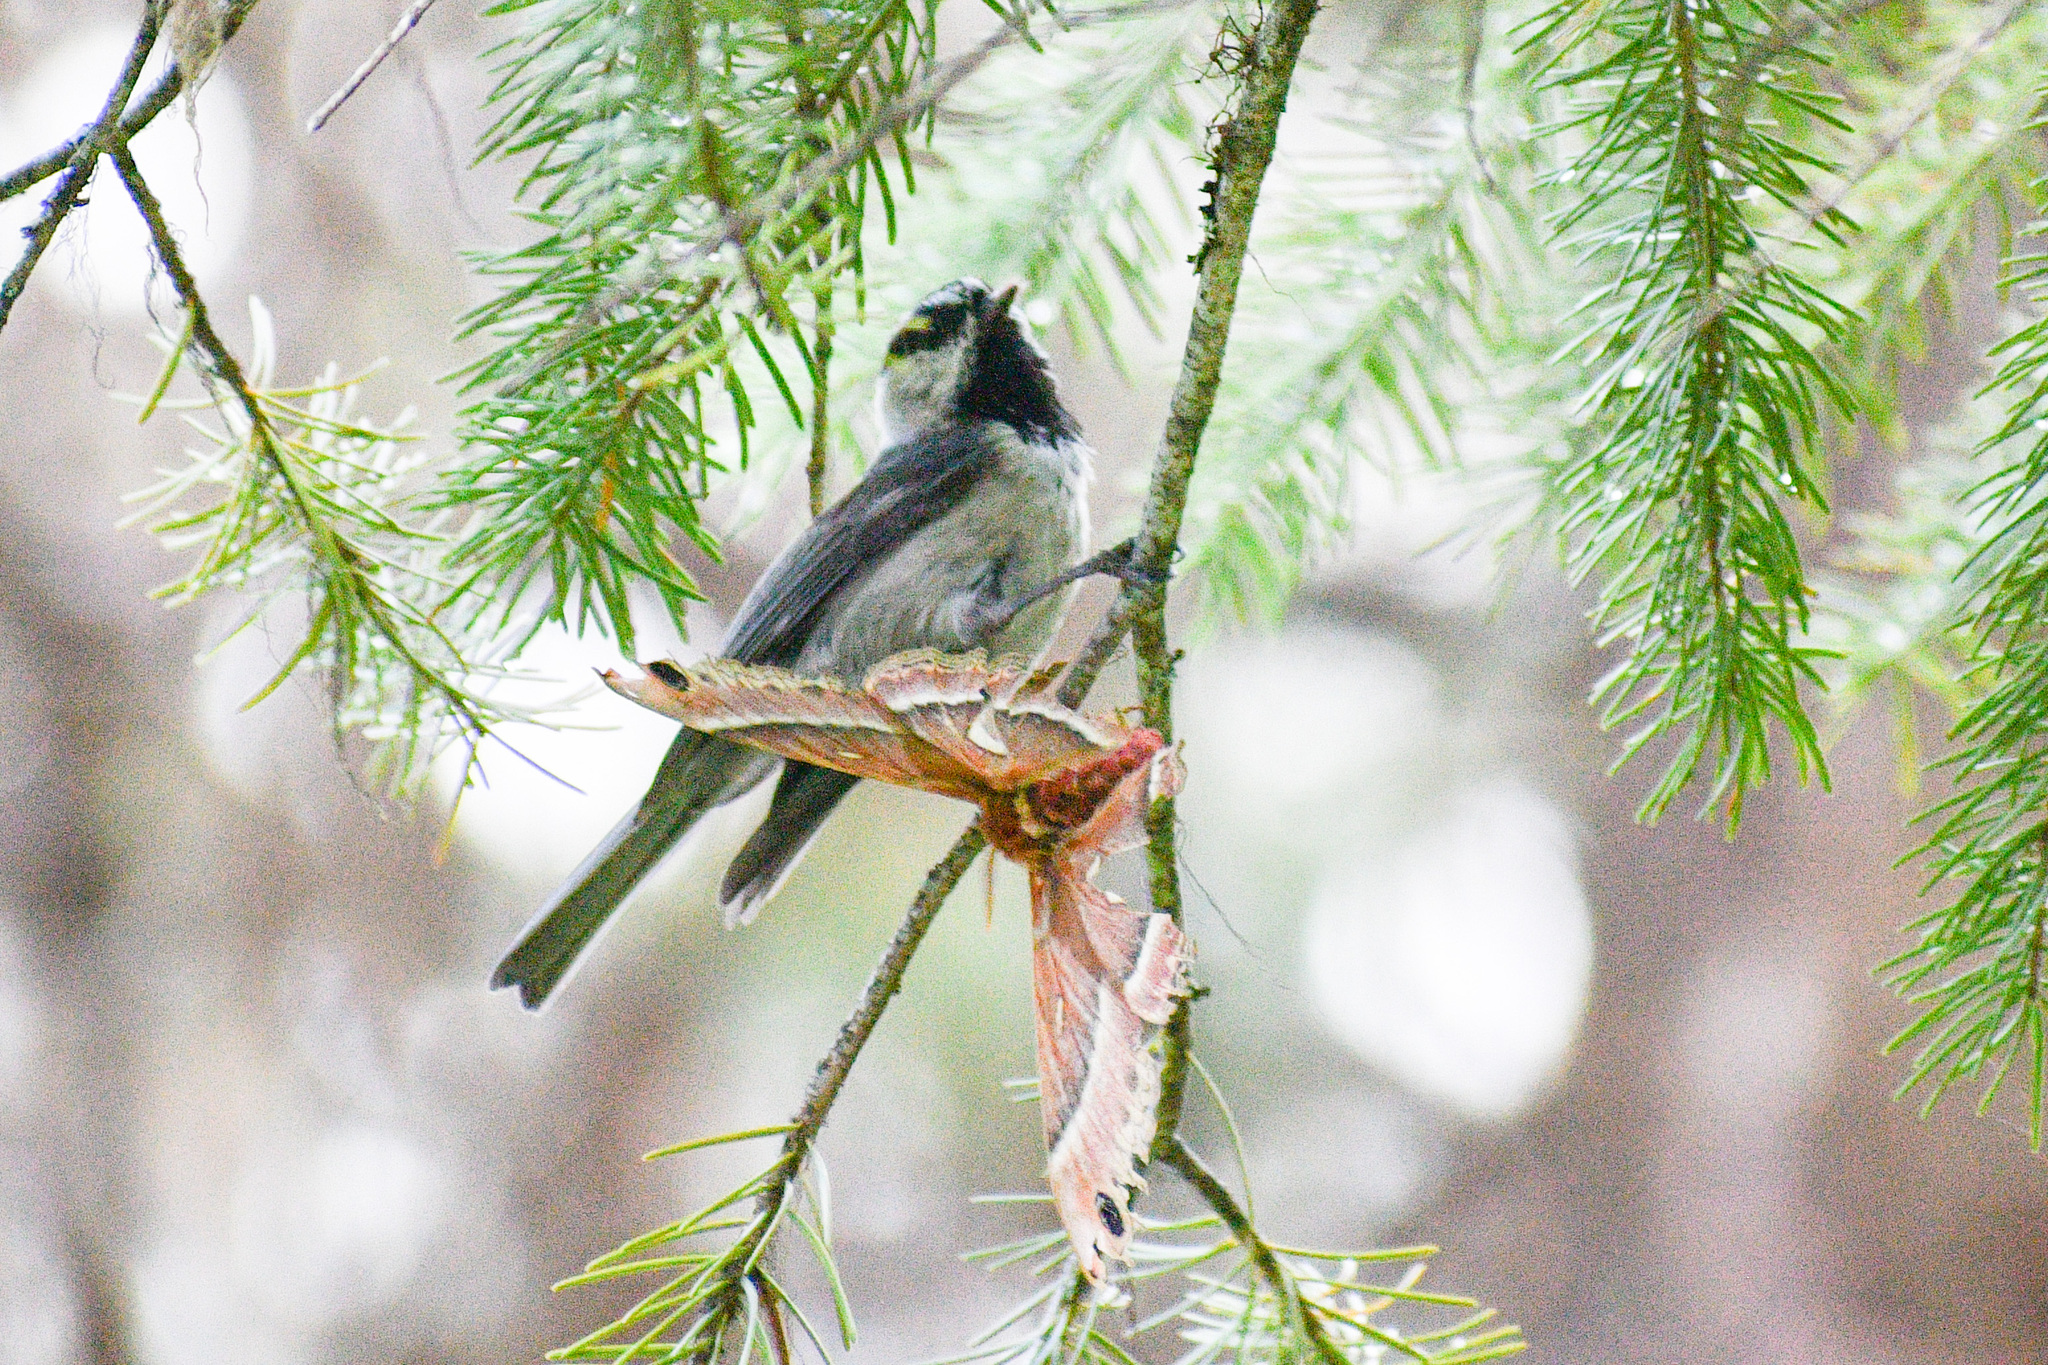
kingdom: Animalia
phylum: Chordata
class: Aves
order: Passeriformes
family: Paridae
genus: Poecile
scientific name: Poecile gambeli
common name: Mountain chickadee
